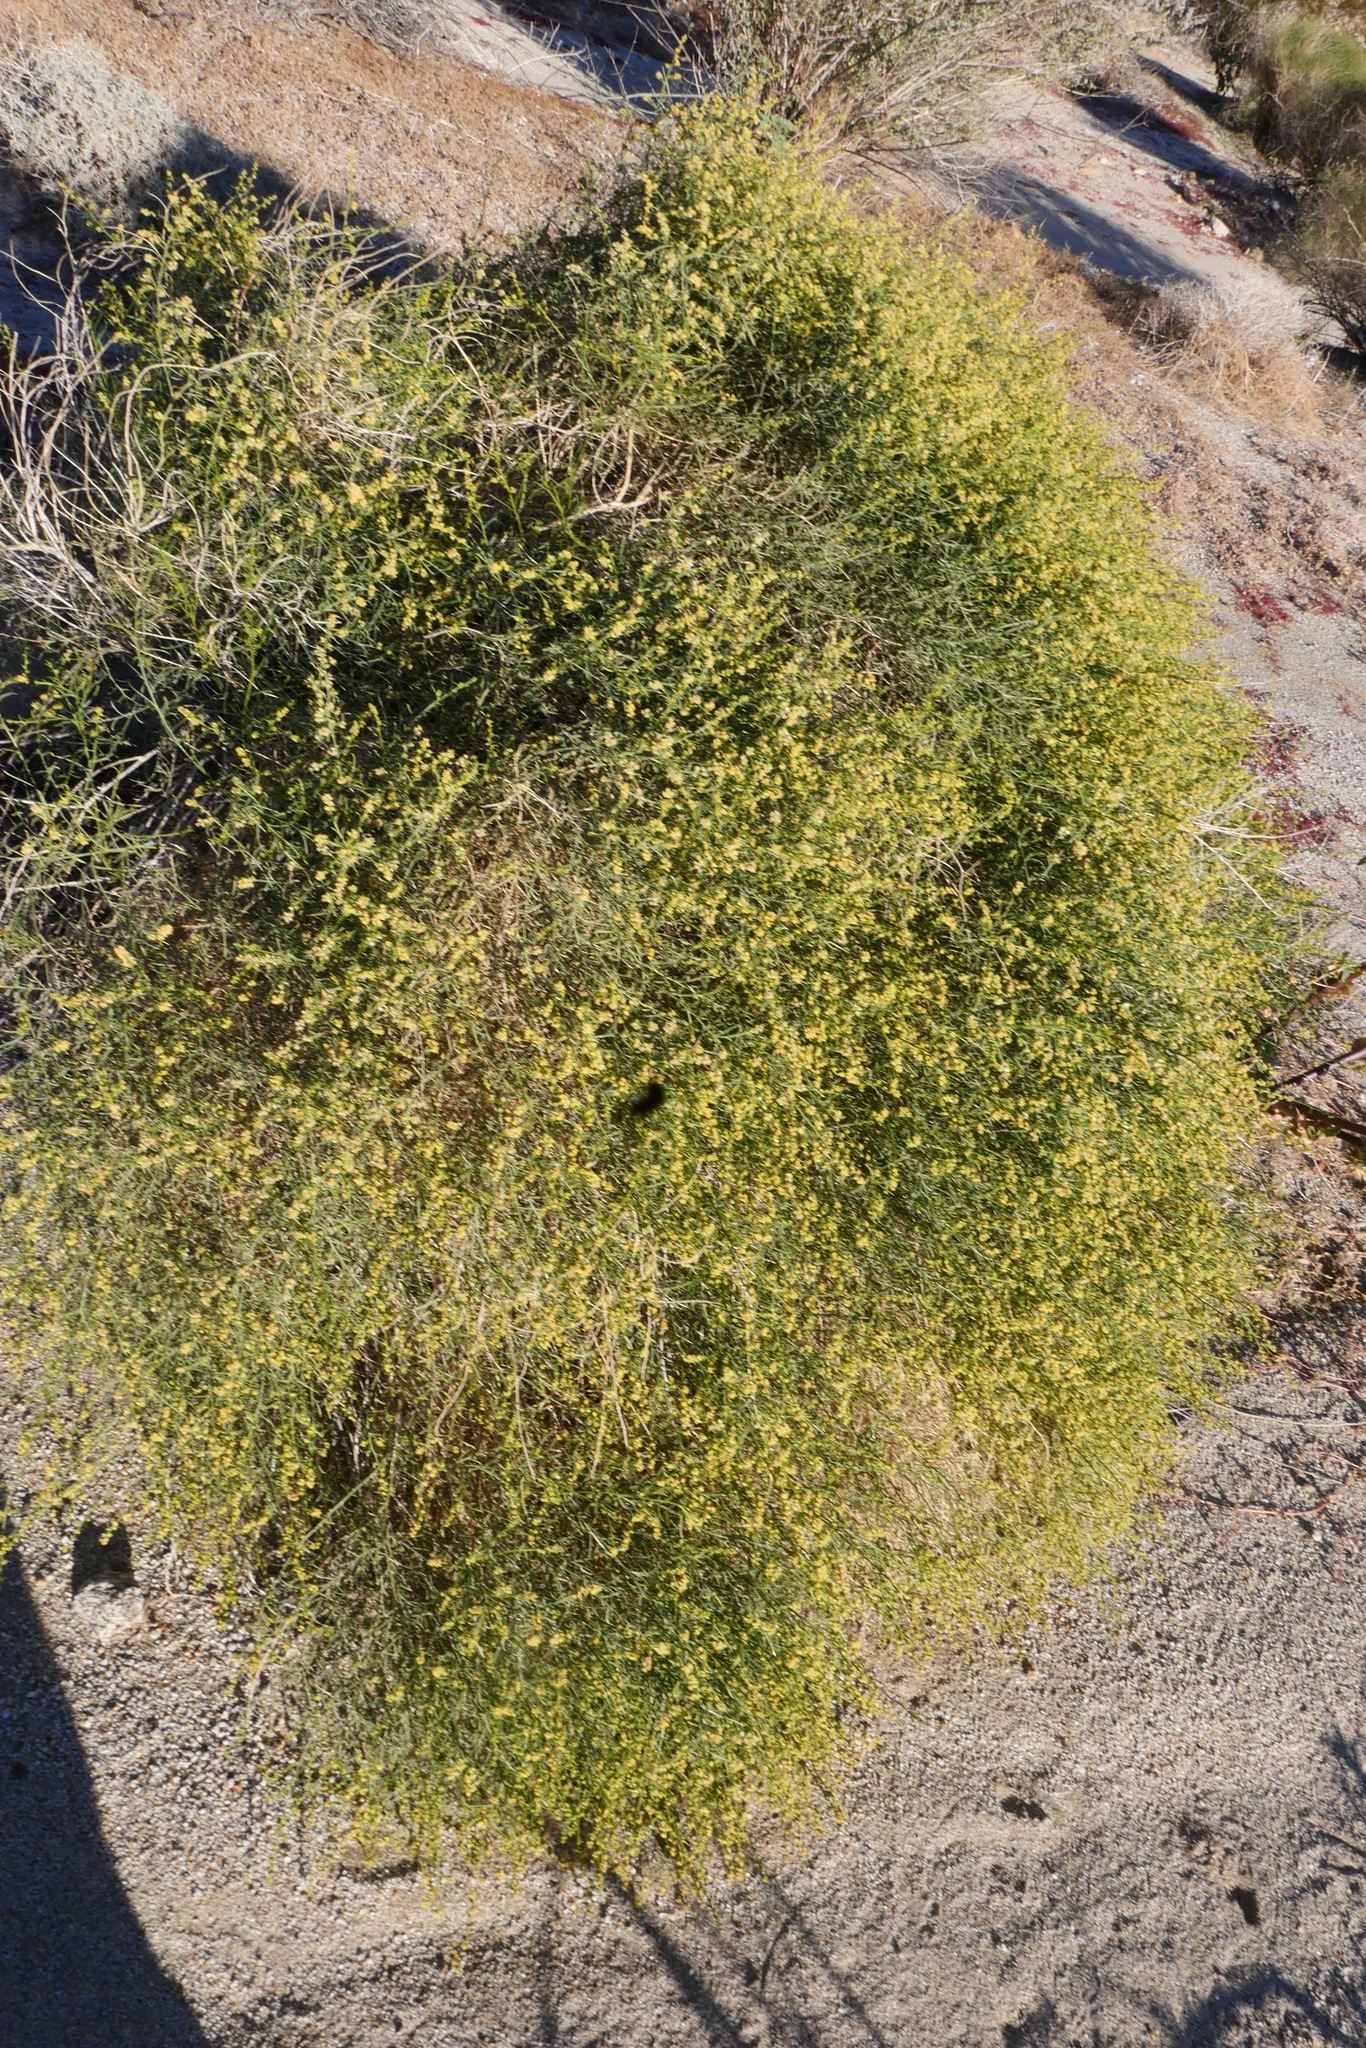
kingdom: Plantae
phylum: Tracheophyta
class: Magnoliopsida
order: Asterales
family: Asteraceae
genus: Ambrosia
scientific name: Ambrosia salsola
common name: Burrobrush
